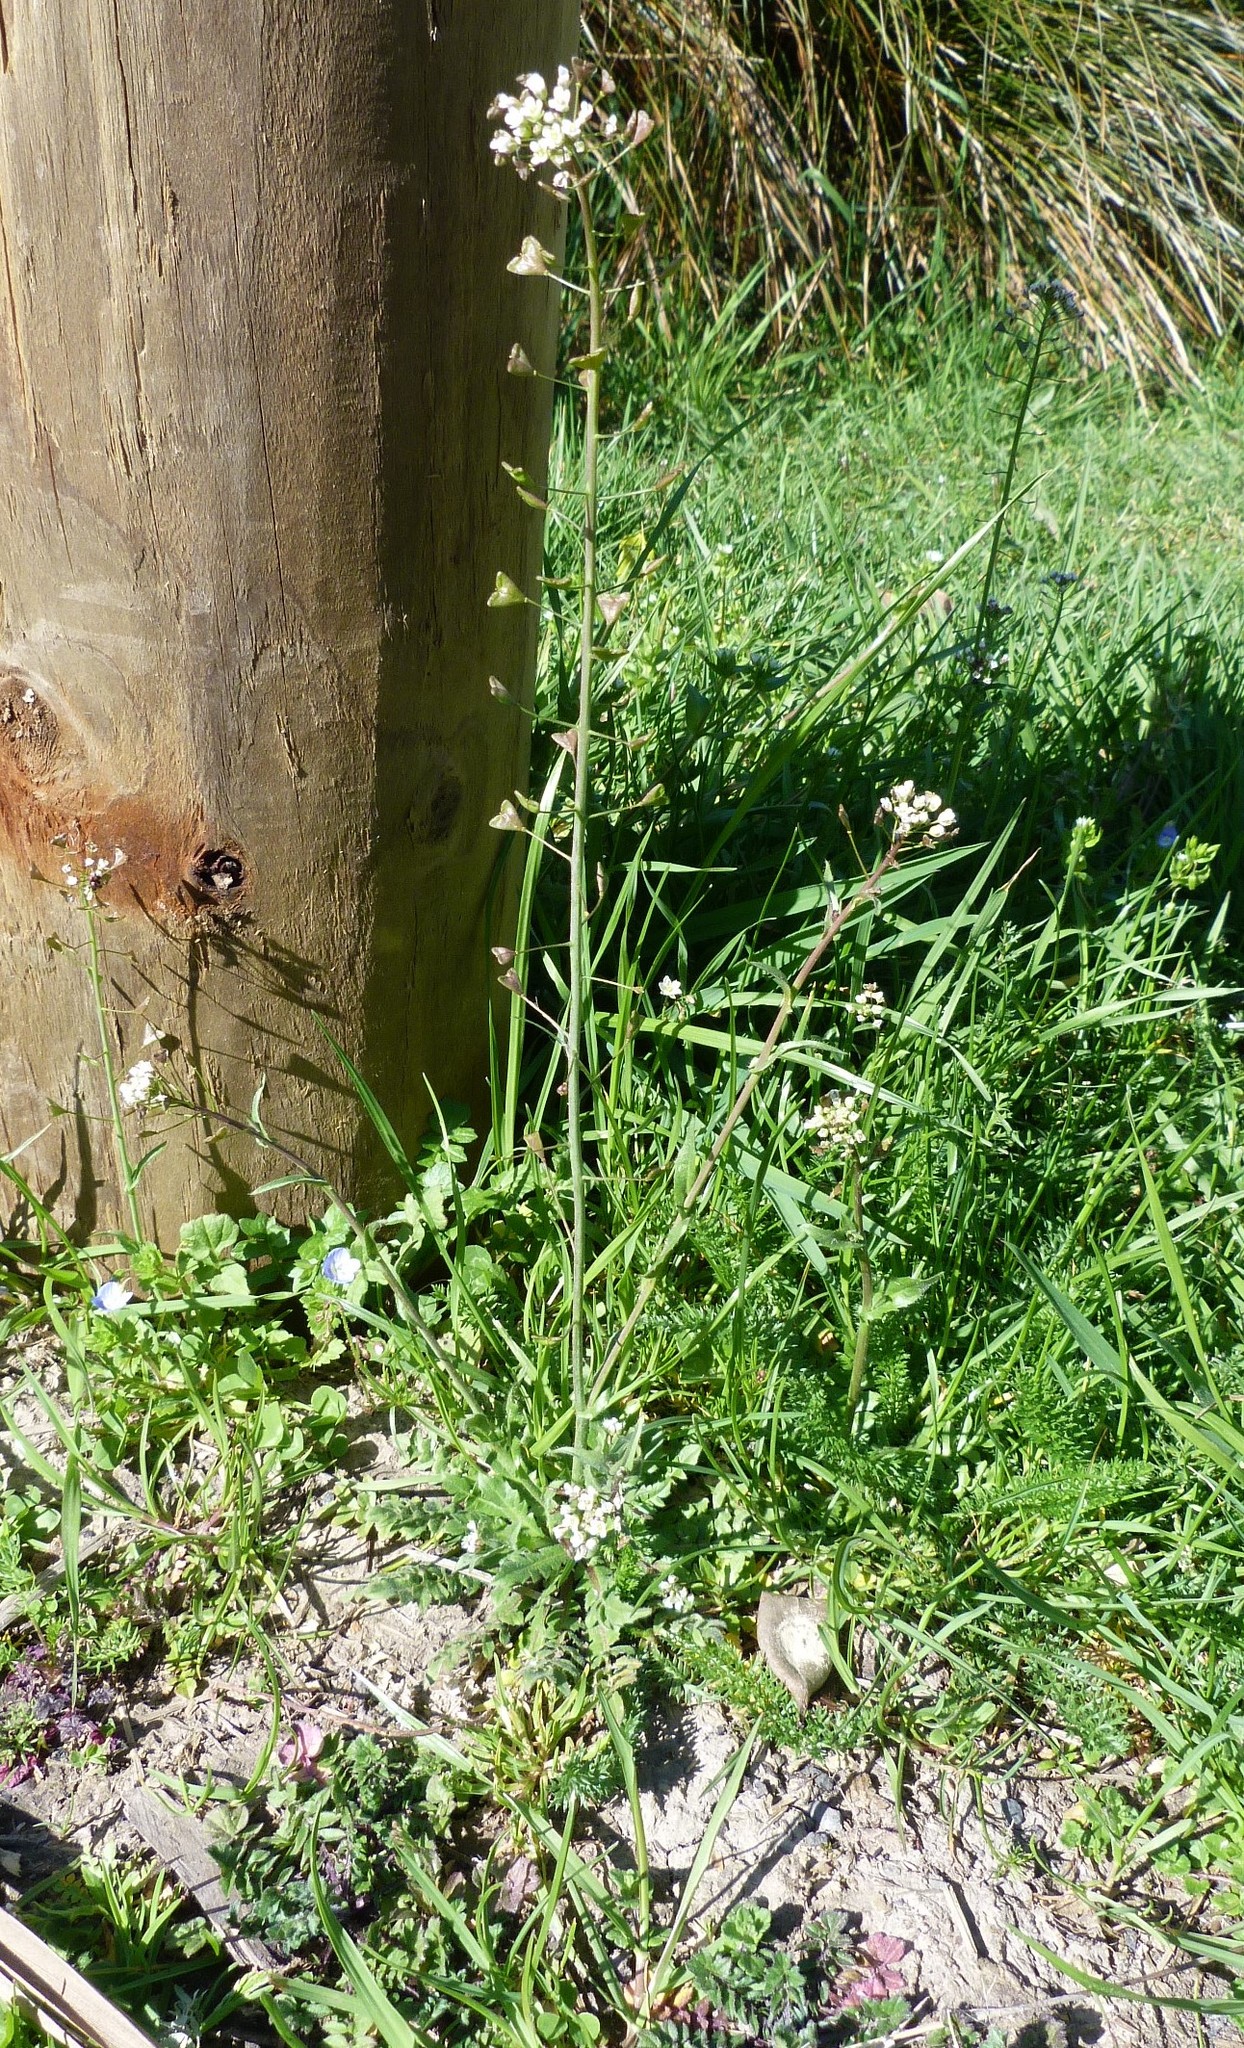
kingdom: Plantae
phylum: Tracheophyta
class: Magnoliopsida
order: Brassicales
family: Brassicaceae
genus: Capsella
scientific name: Capsella bursa-pastoris
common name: Shepherd's purse
